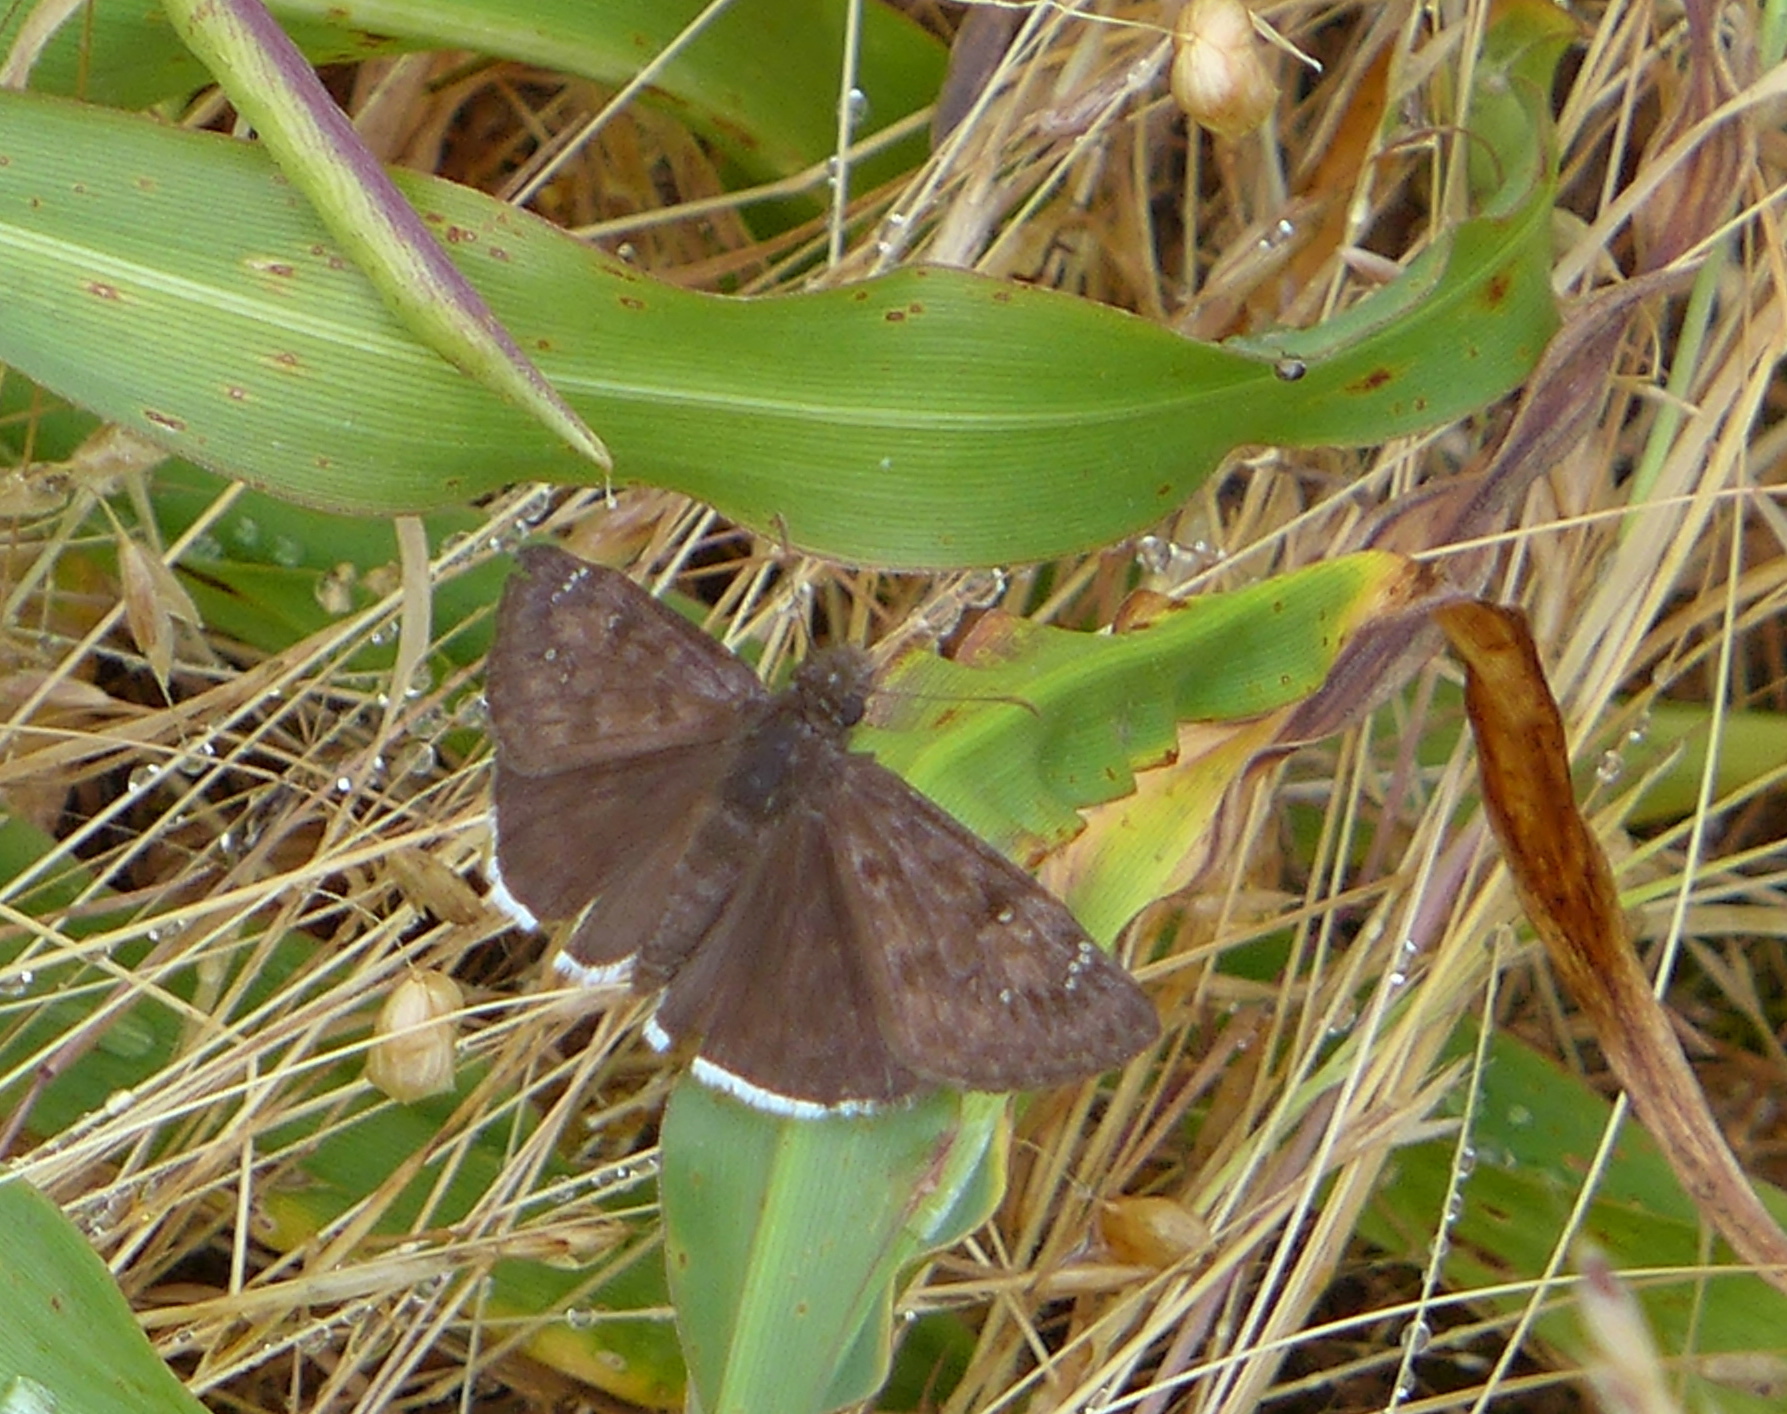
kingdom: Animalia
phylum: Arthropoda
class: Insecta
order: Lepidoptera
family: Hesperiidae
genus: Erynnis
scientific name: Erynnis tristis
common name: Mournful duskywing
